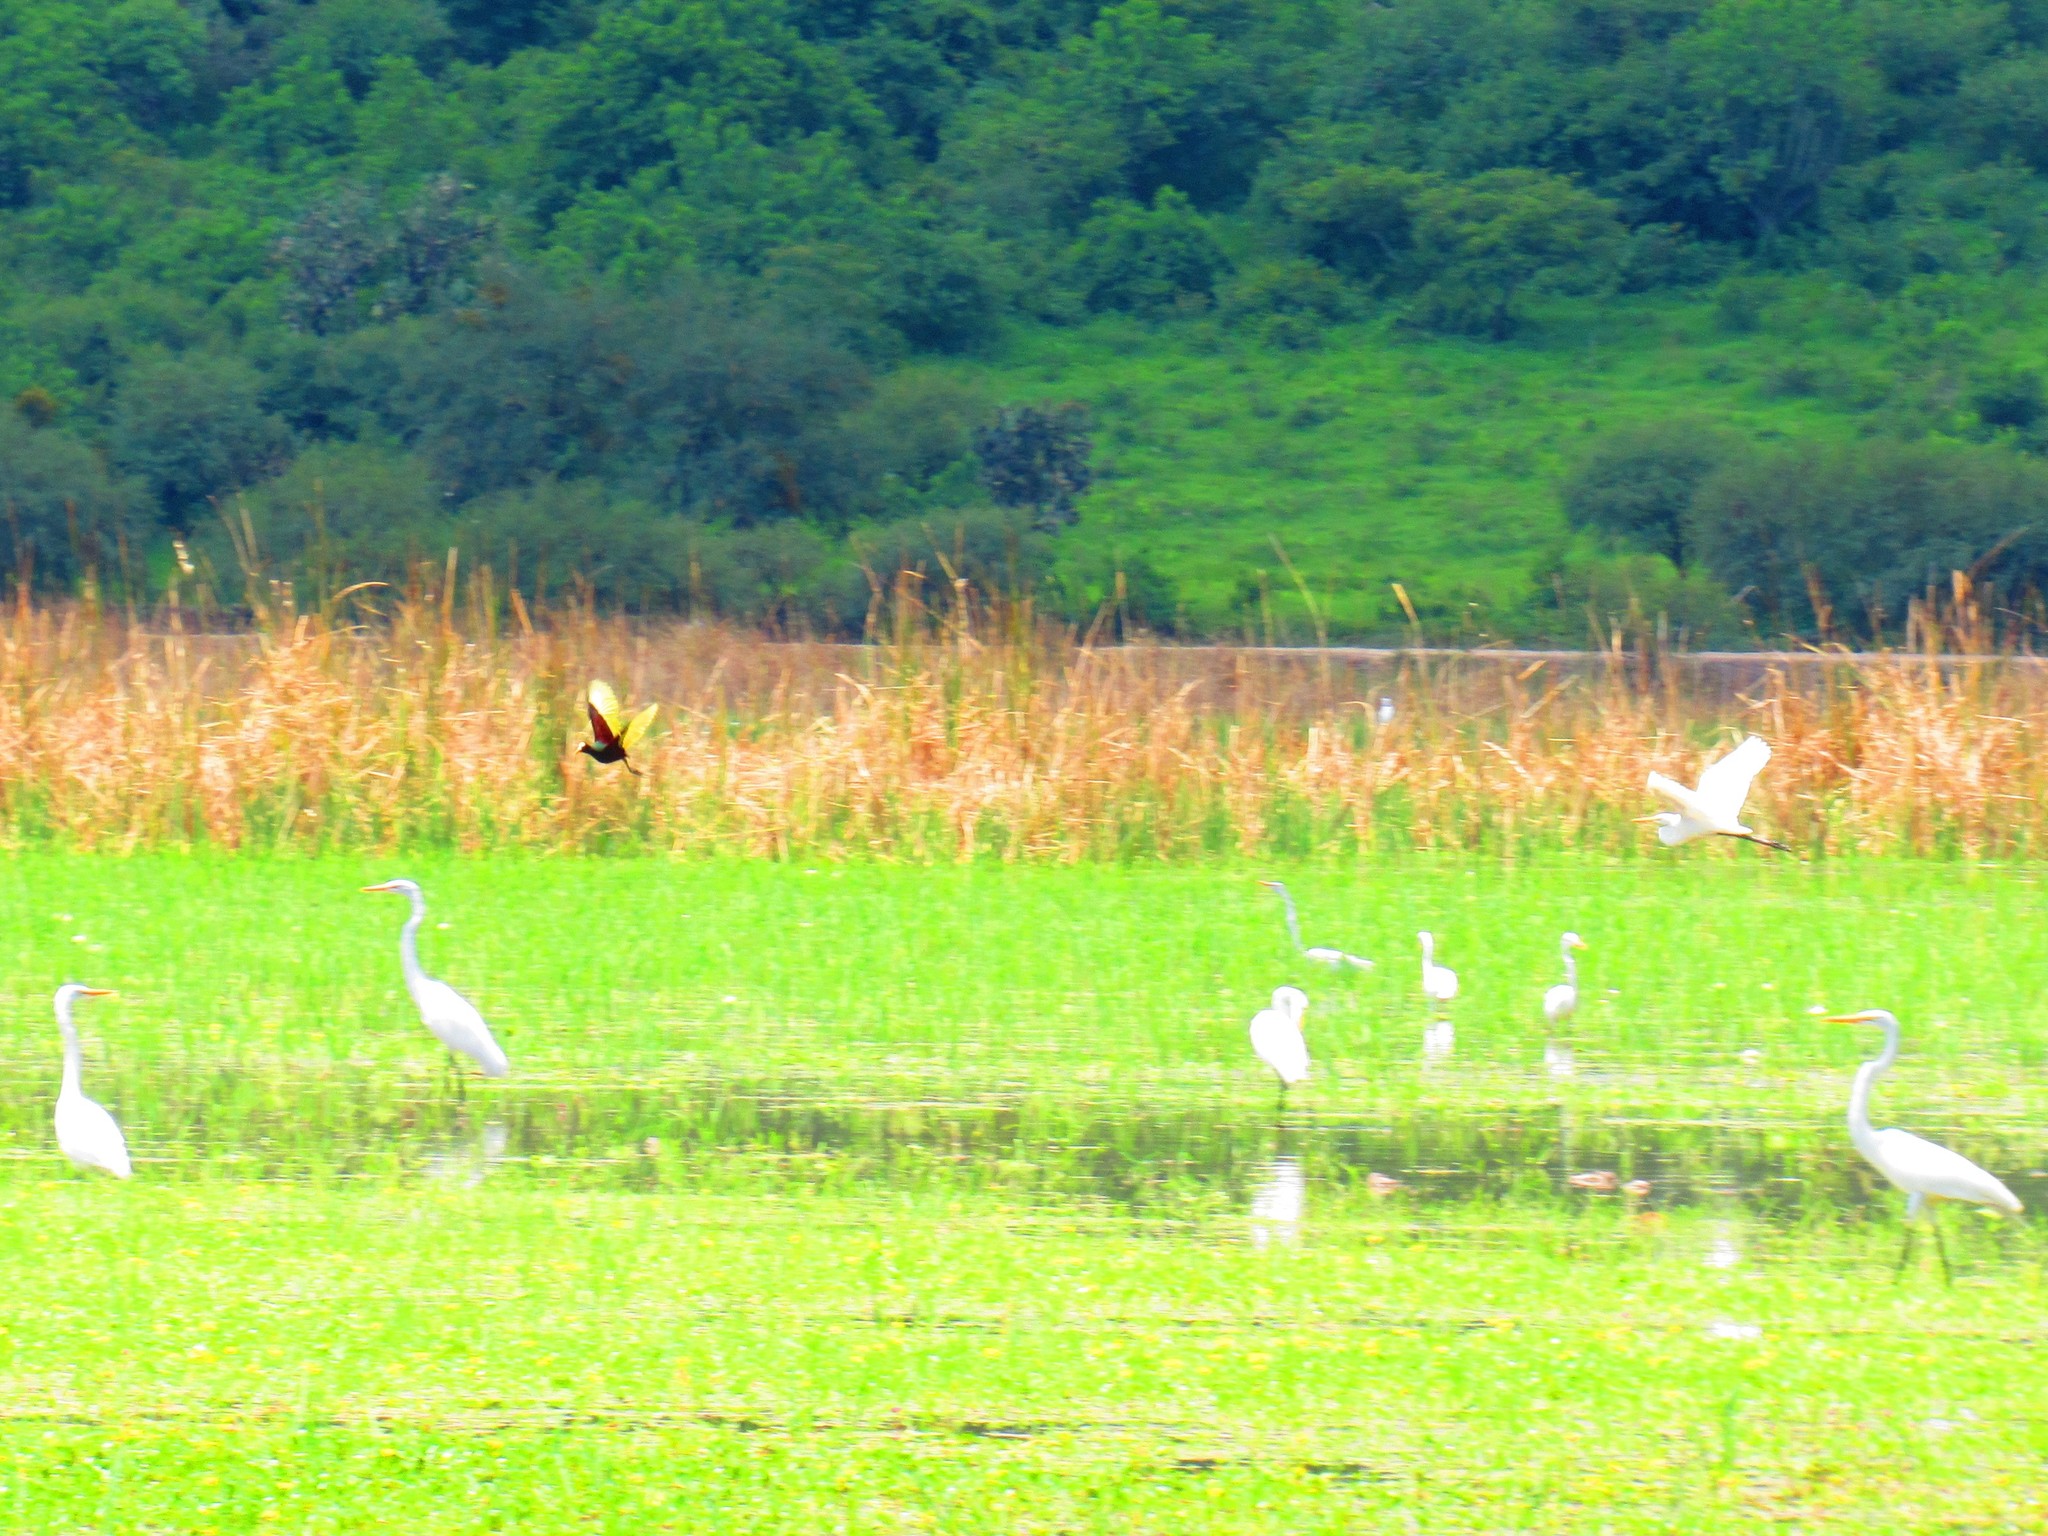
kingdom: Animalia
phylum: Chordata
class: Aves
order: Charadriiformes
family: Jacanidae
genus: Jacana
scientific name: Jacana spinosa
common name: Northern jacana
